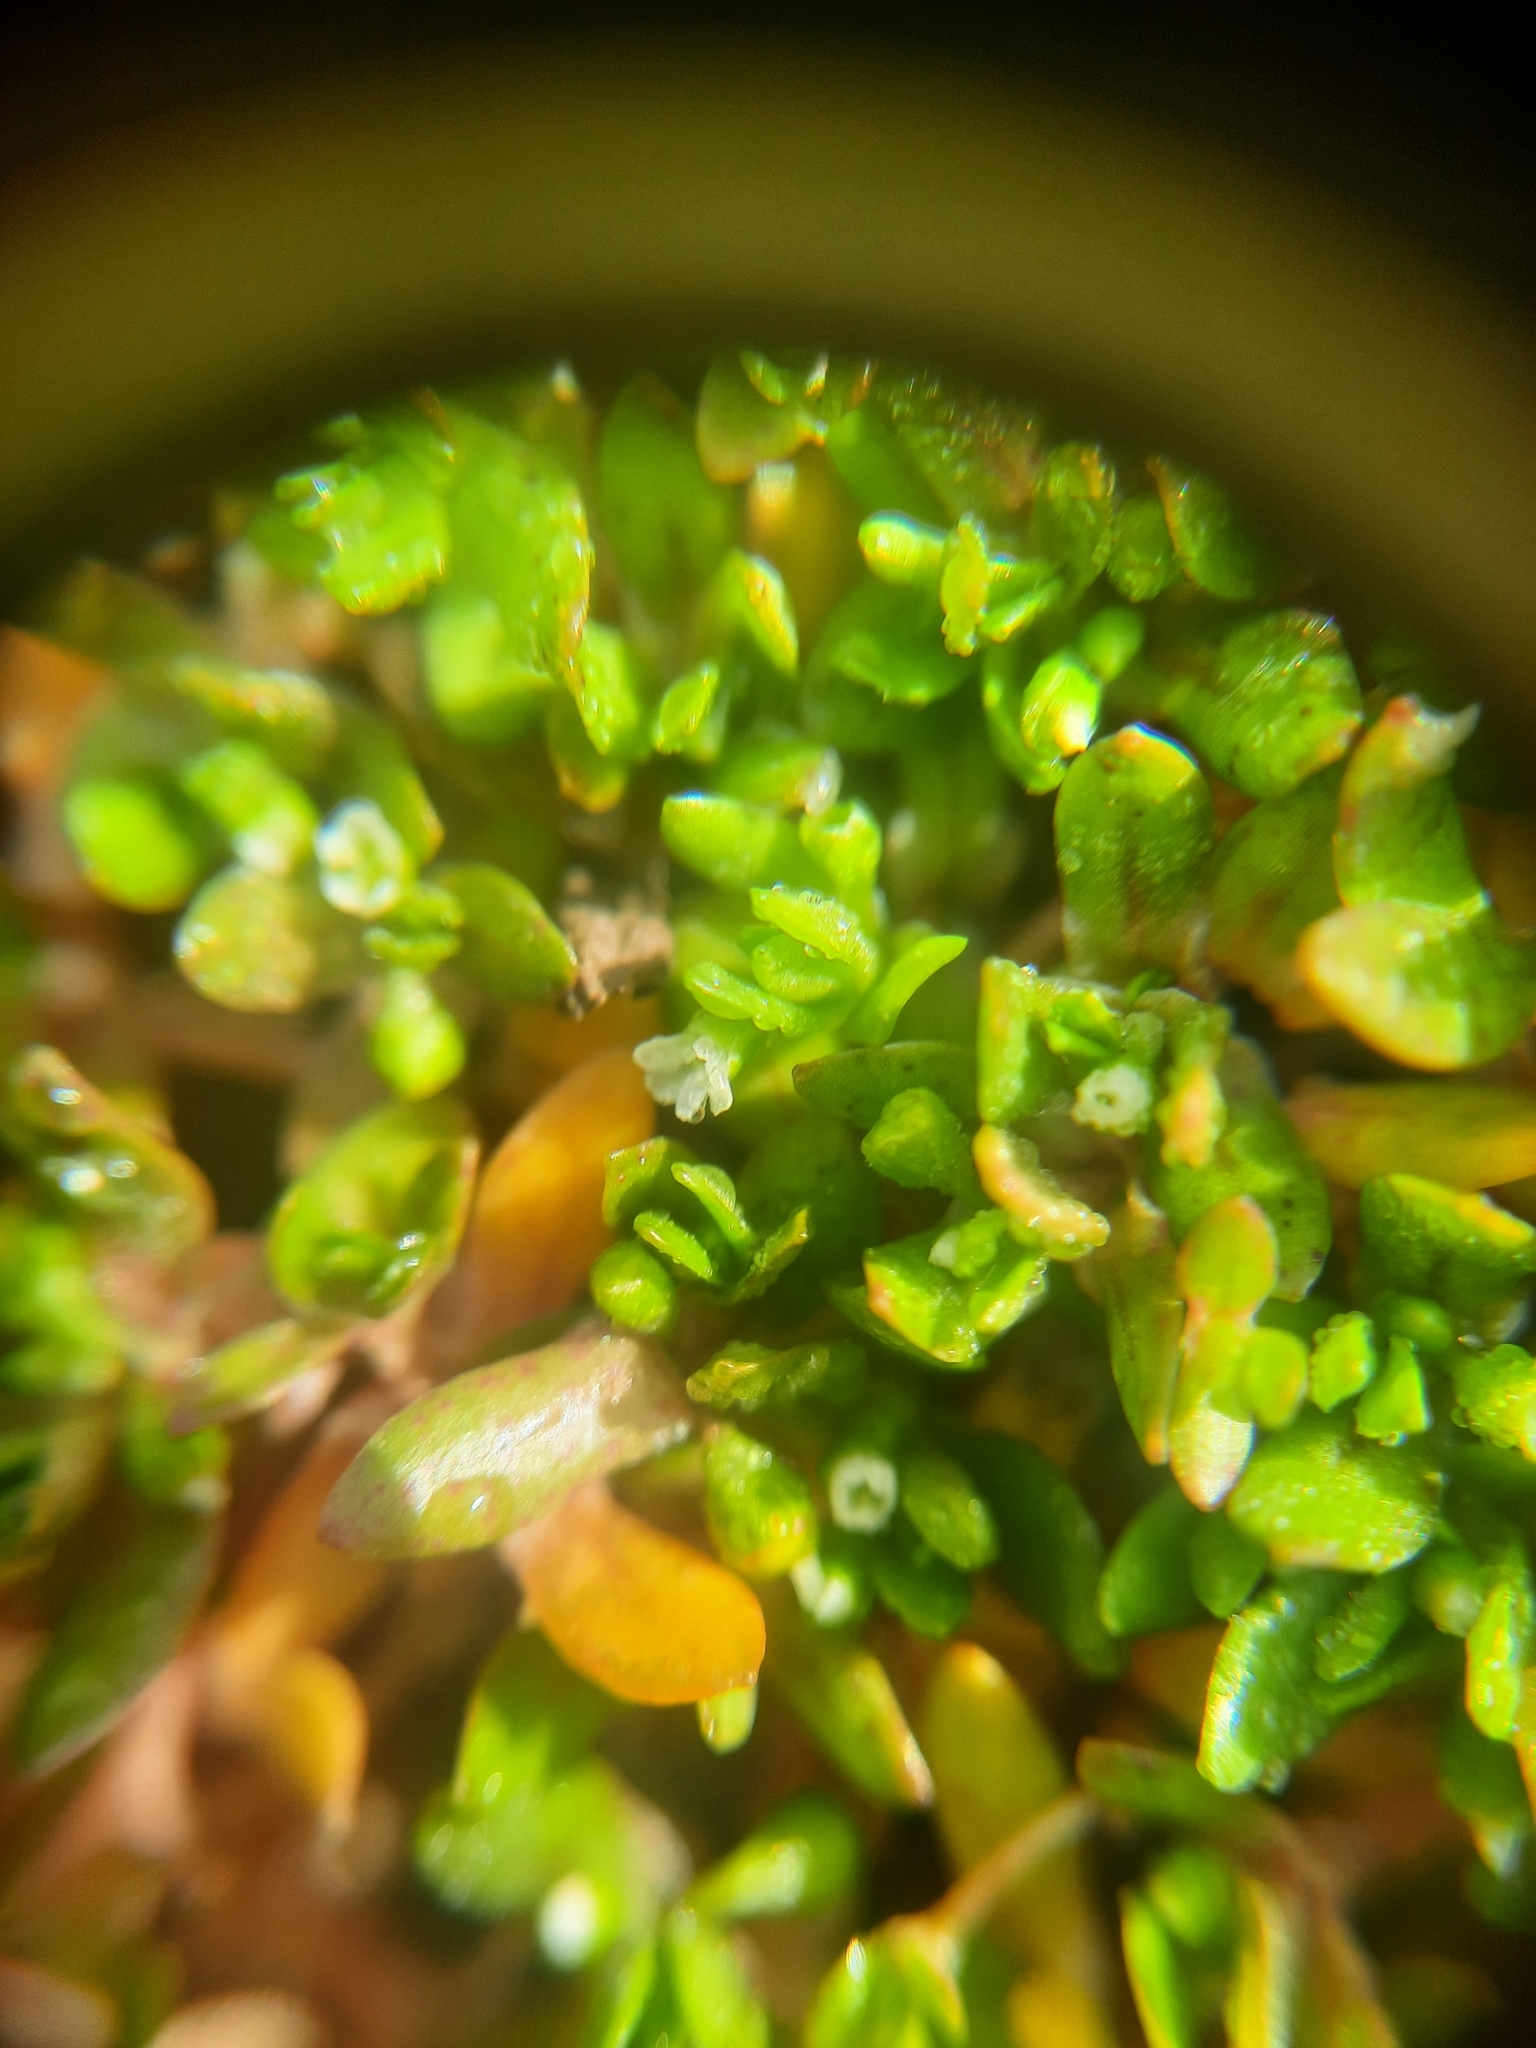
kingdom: Plantae
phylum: Tracheophyta
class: Magnoliopsida
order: Caryophyllales
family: Montiaceae
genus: Montia
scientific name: Montia fontana
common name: Blinks
